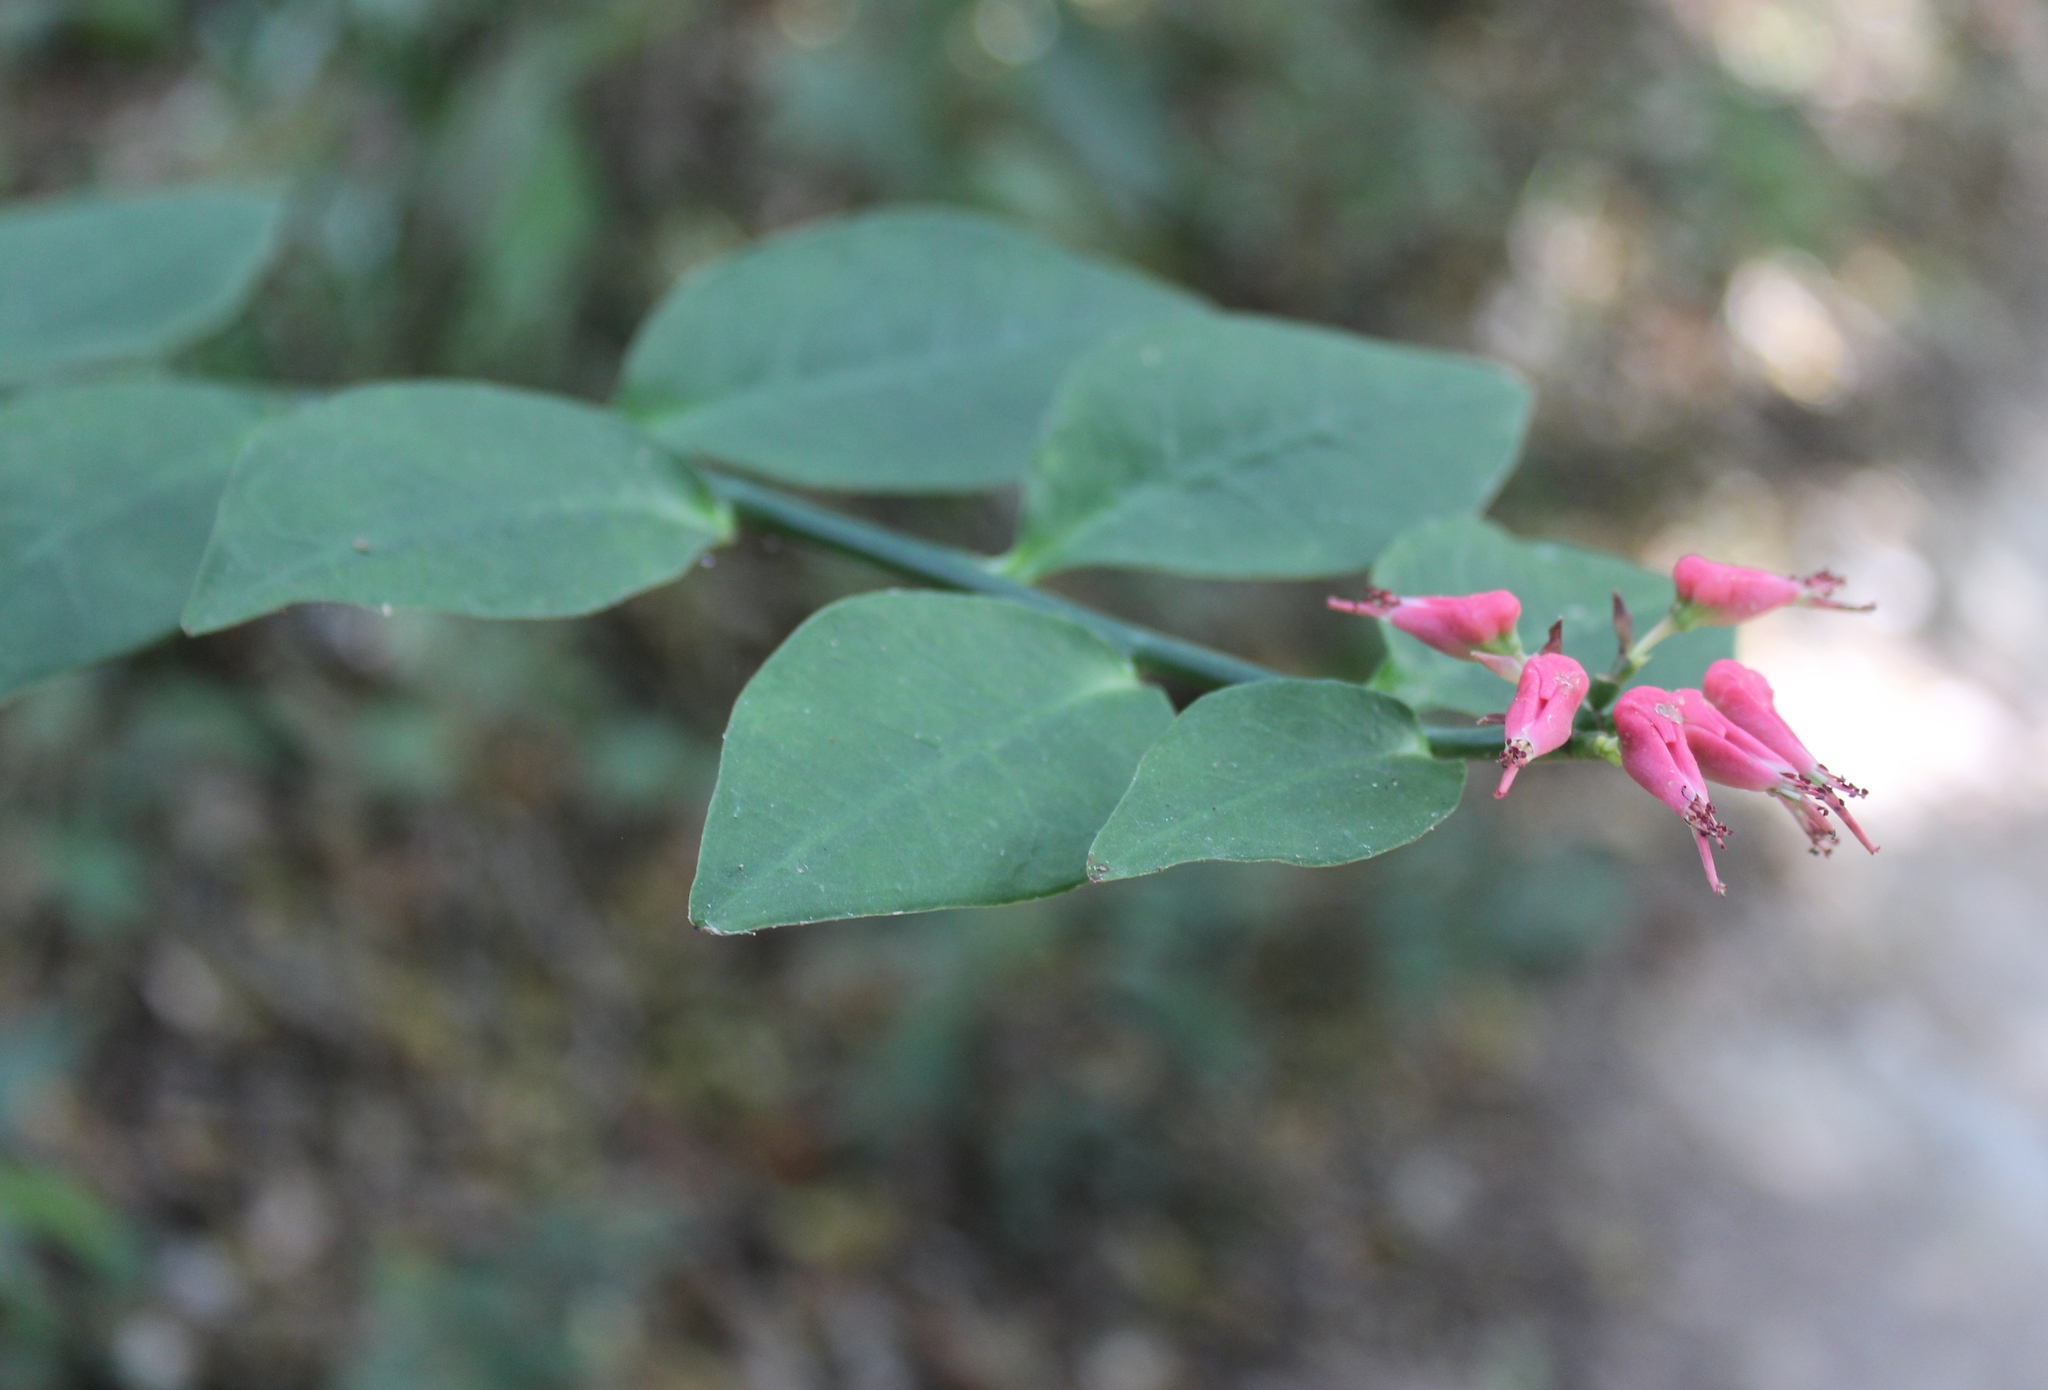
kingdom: Plantae
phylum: Tracheophyta
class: Magnoliopsida
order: Malpighiales
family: Euphorbiaceae
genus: Euphorbia
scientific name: Euphorbia tithymaloides
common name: Slipperplant
